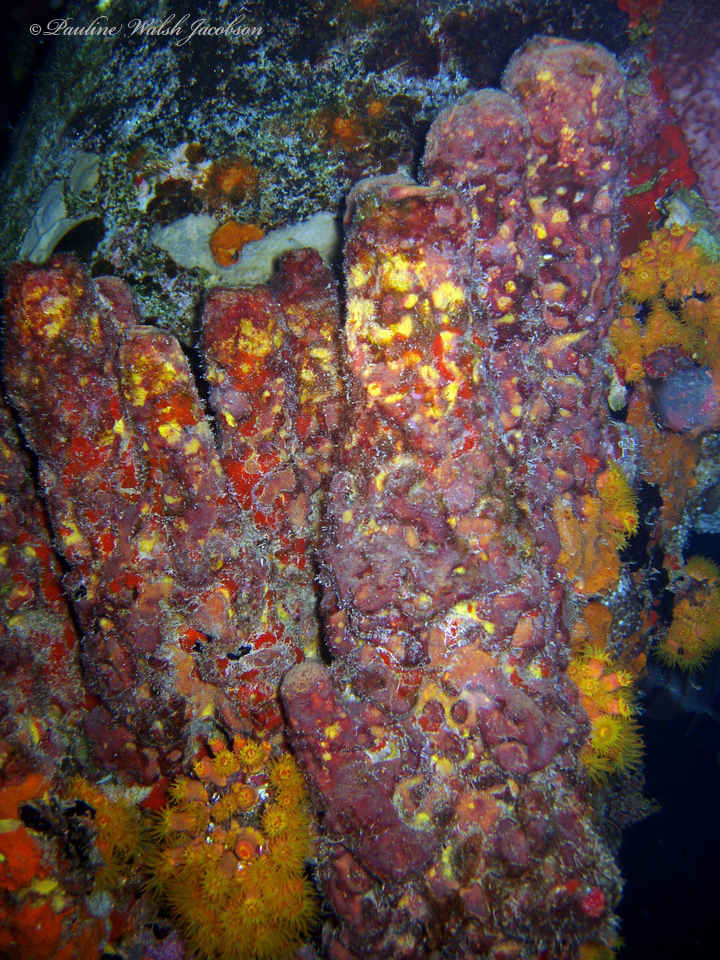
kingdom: Animalia
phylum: Porifera
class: Demospongiae
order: Verongiida
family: Aplysinidae
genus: Aplysina
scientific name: Aplysina lacunosa
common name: Convoluted barrel sponge
